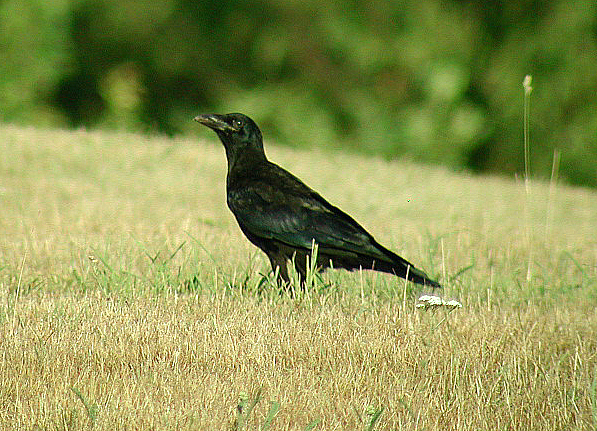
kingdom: Animalia
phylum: Chordata
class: Aves
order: Passeriformes
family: Corvidae
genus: Corvus
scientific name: Corvus frugilegus
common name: Rook
